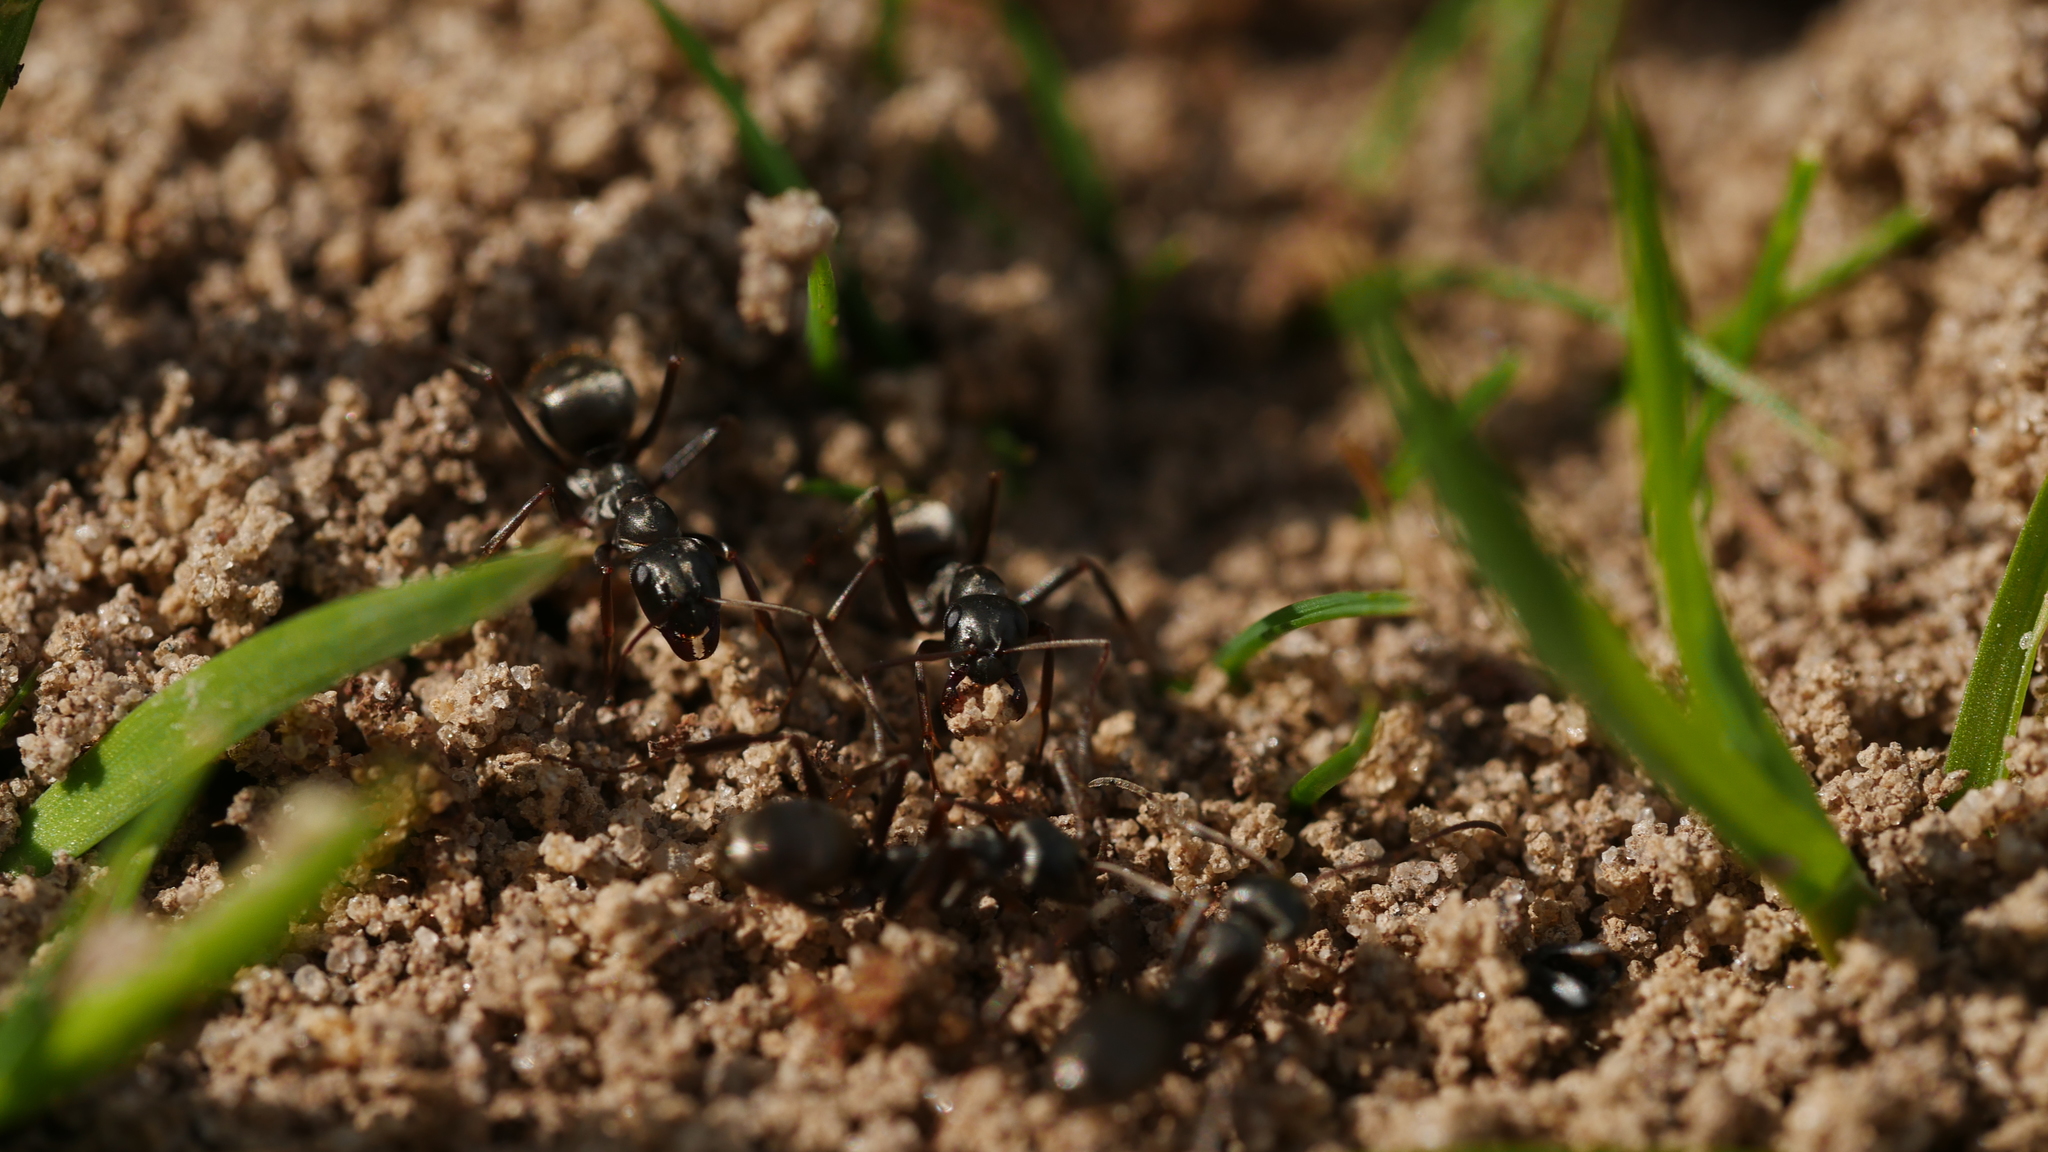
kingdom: Animalia
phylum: Arthropoda
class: Insecta
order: Hymenoptera
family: Formicidae
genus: Formica
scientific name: Formica
